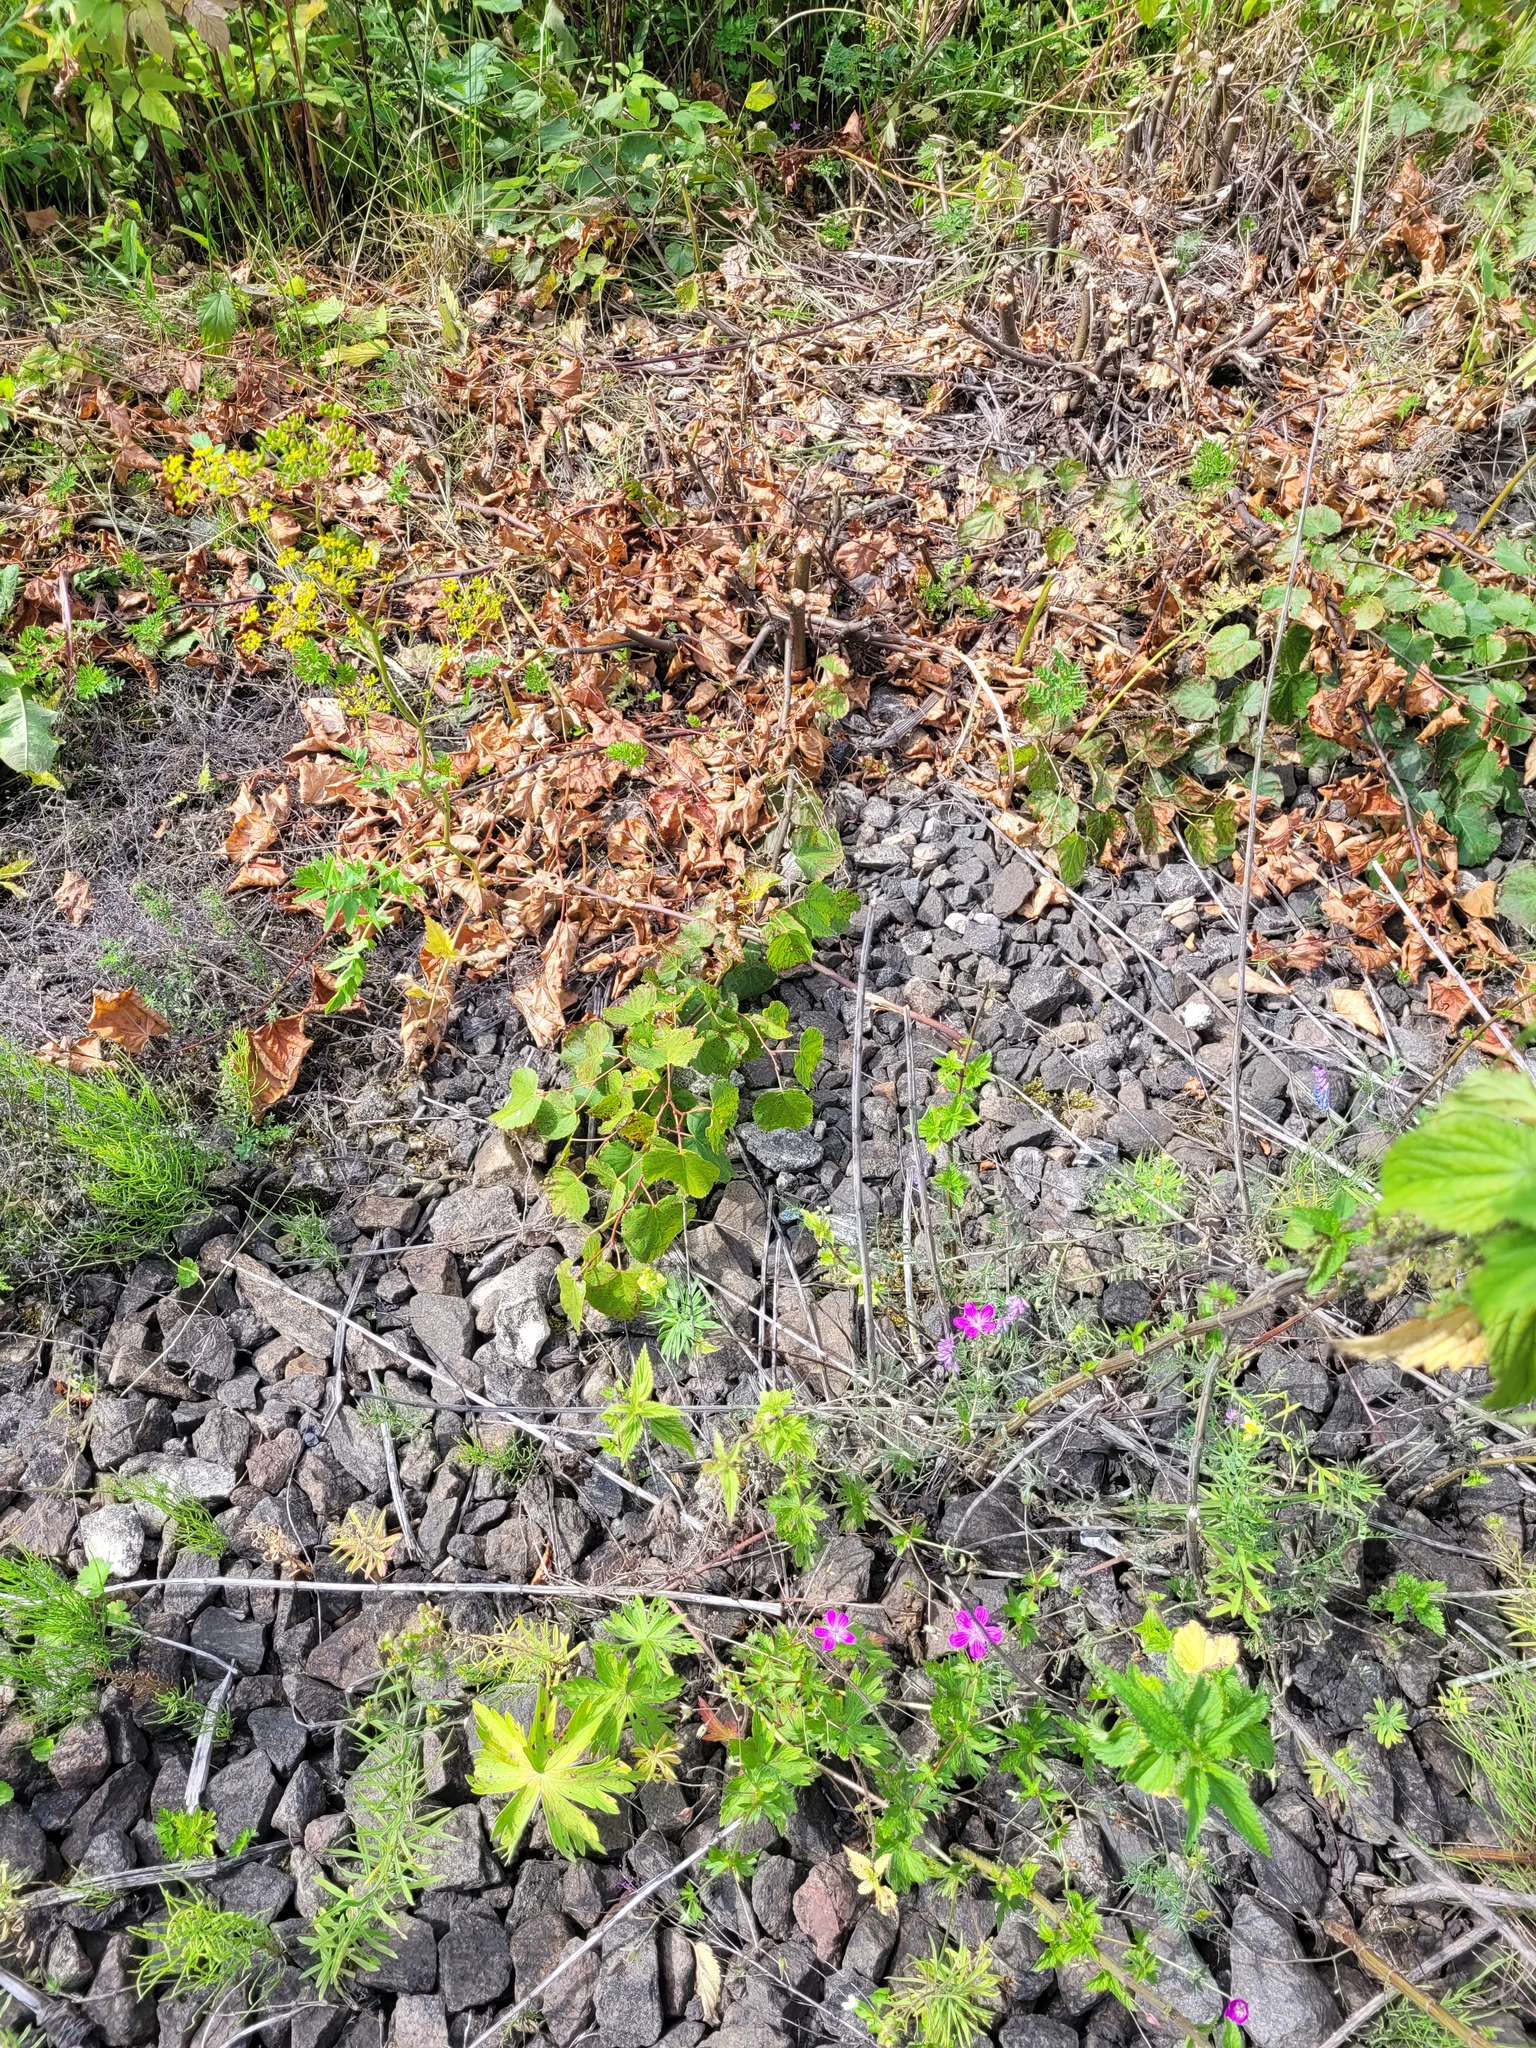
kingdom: Plantae
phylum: Tracheophyta
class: Magnoliopsida
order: Malvales
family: Malvaceae
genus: Tilia
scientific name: Tilia cordata
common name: Small-leaved lime
